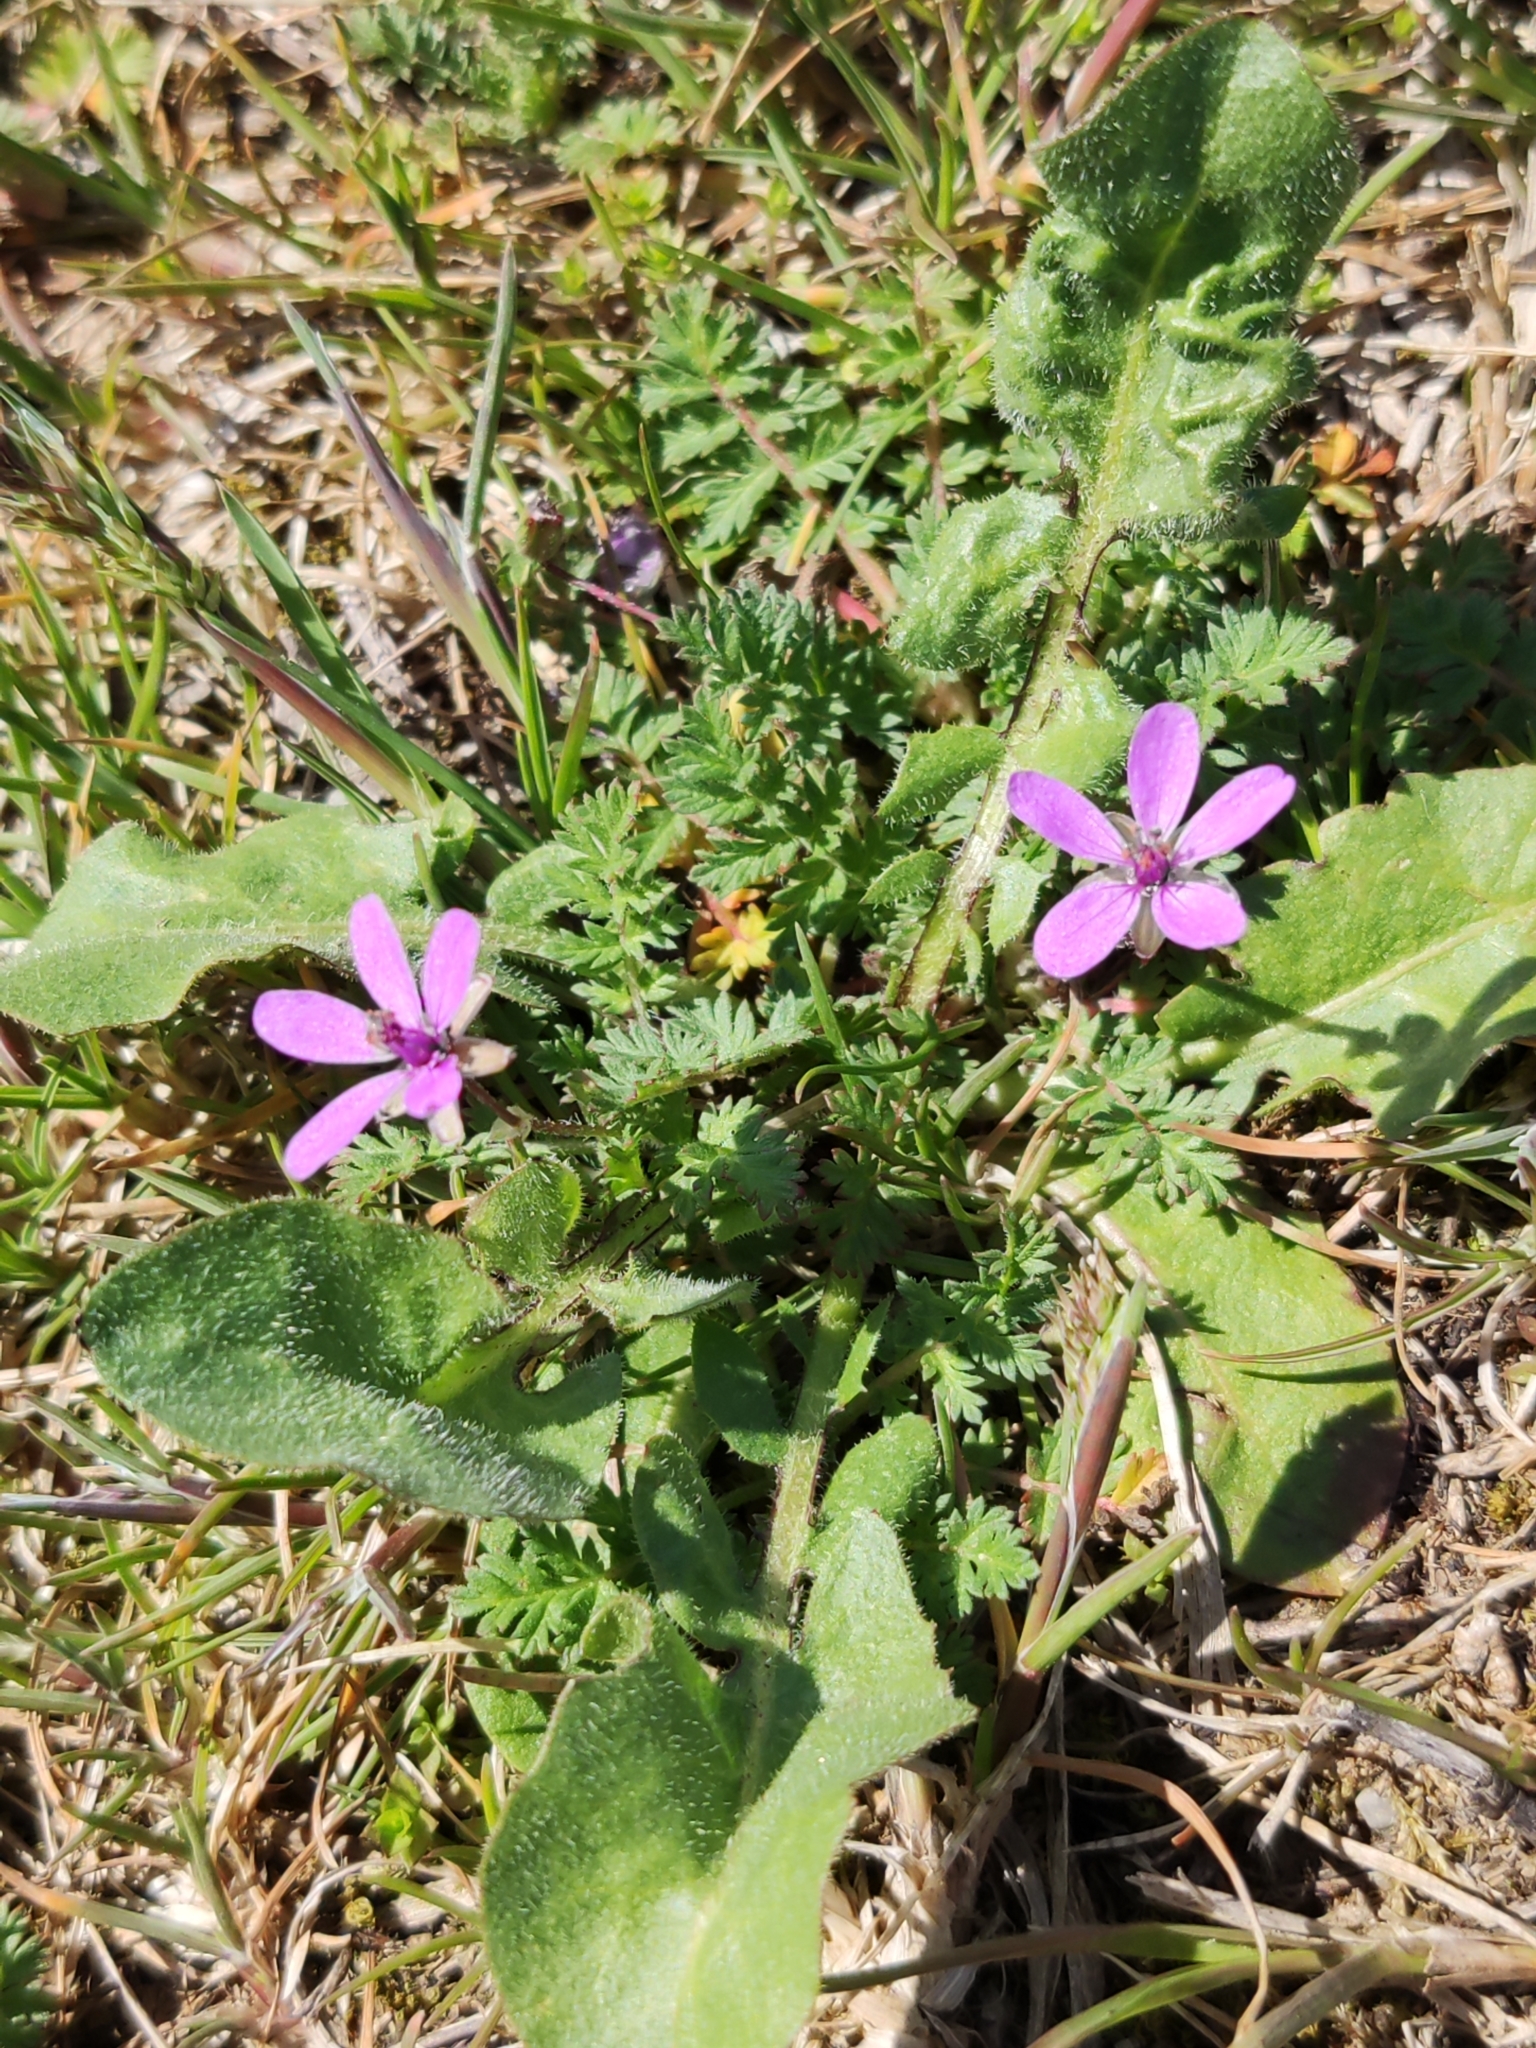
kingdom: Plantae
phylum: Tracheophyta
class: Magnoliopsida
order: Geraniales
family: Geraniaceae
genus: Erodium
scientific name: Erodium cicutarium
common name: Common stork's-bill
